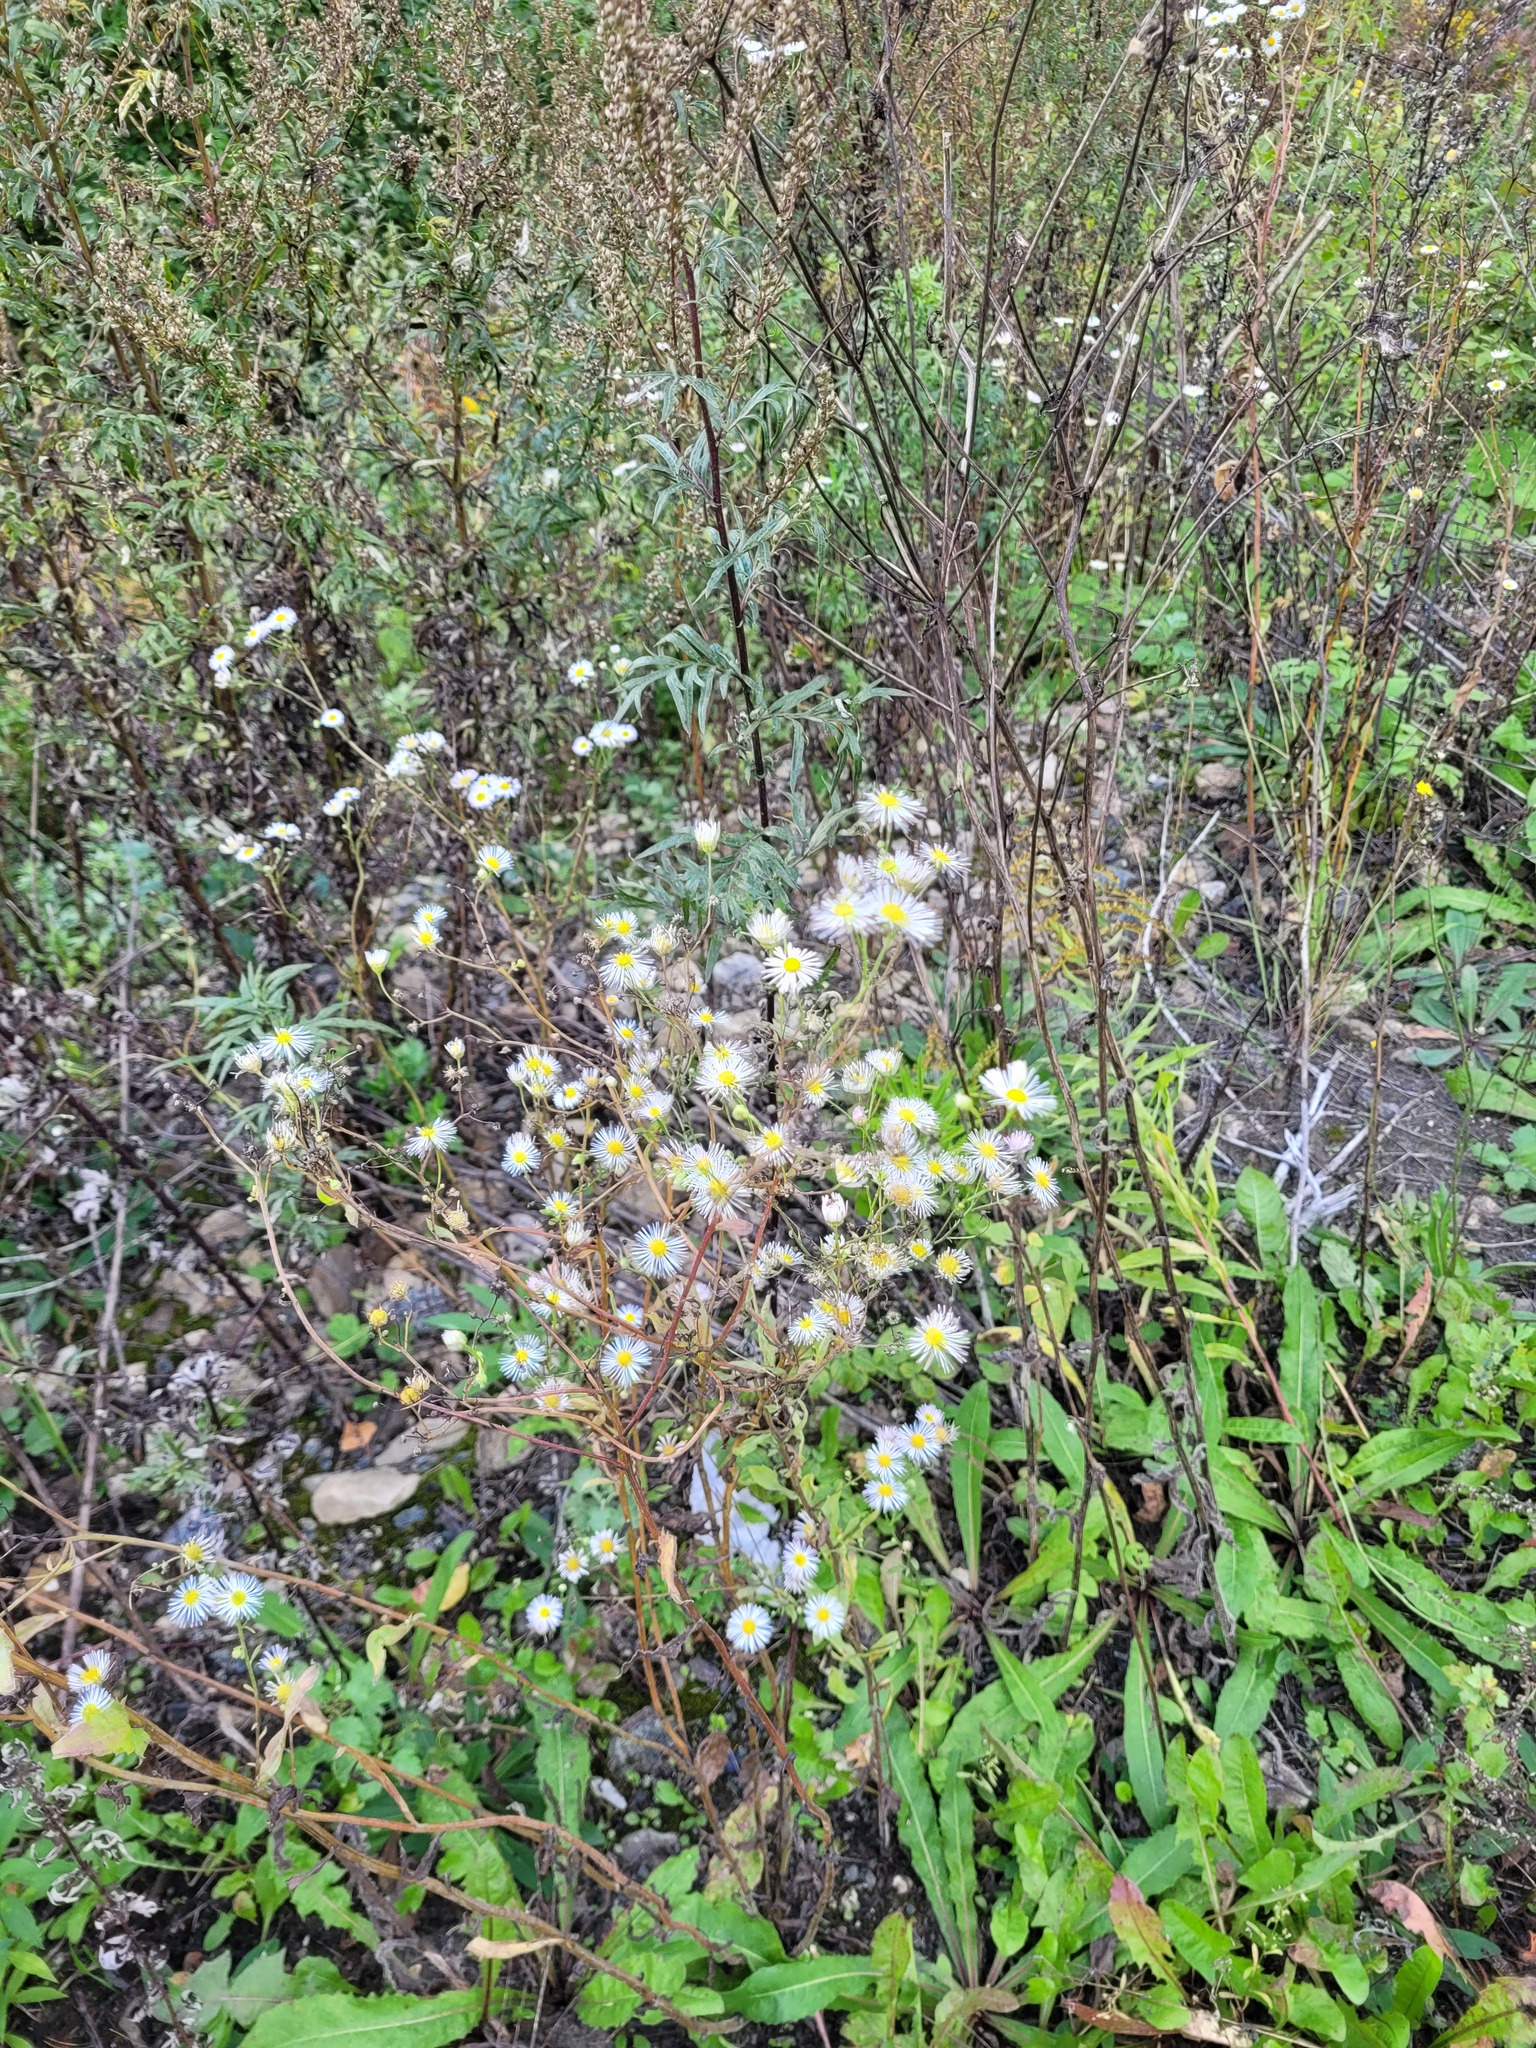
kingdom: Plantae
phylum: Tracheophyta
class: Magnoliopsida
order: Asterales
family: Asteraceae
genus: Erigeron
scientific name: Erigeron annuus
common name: Tall fleabane
